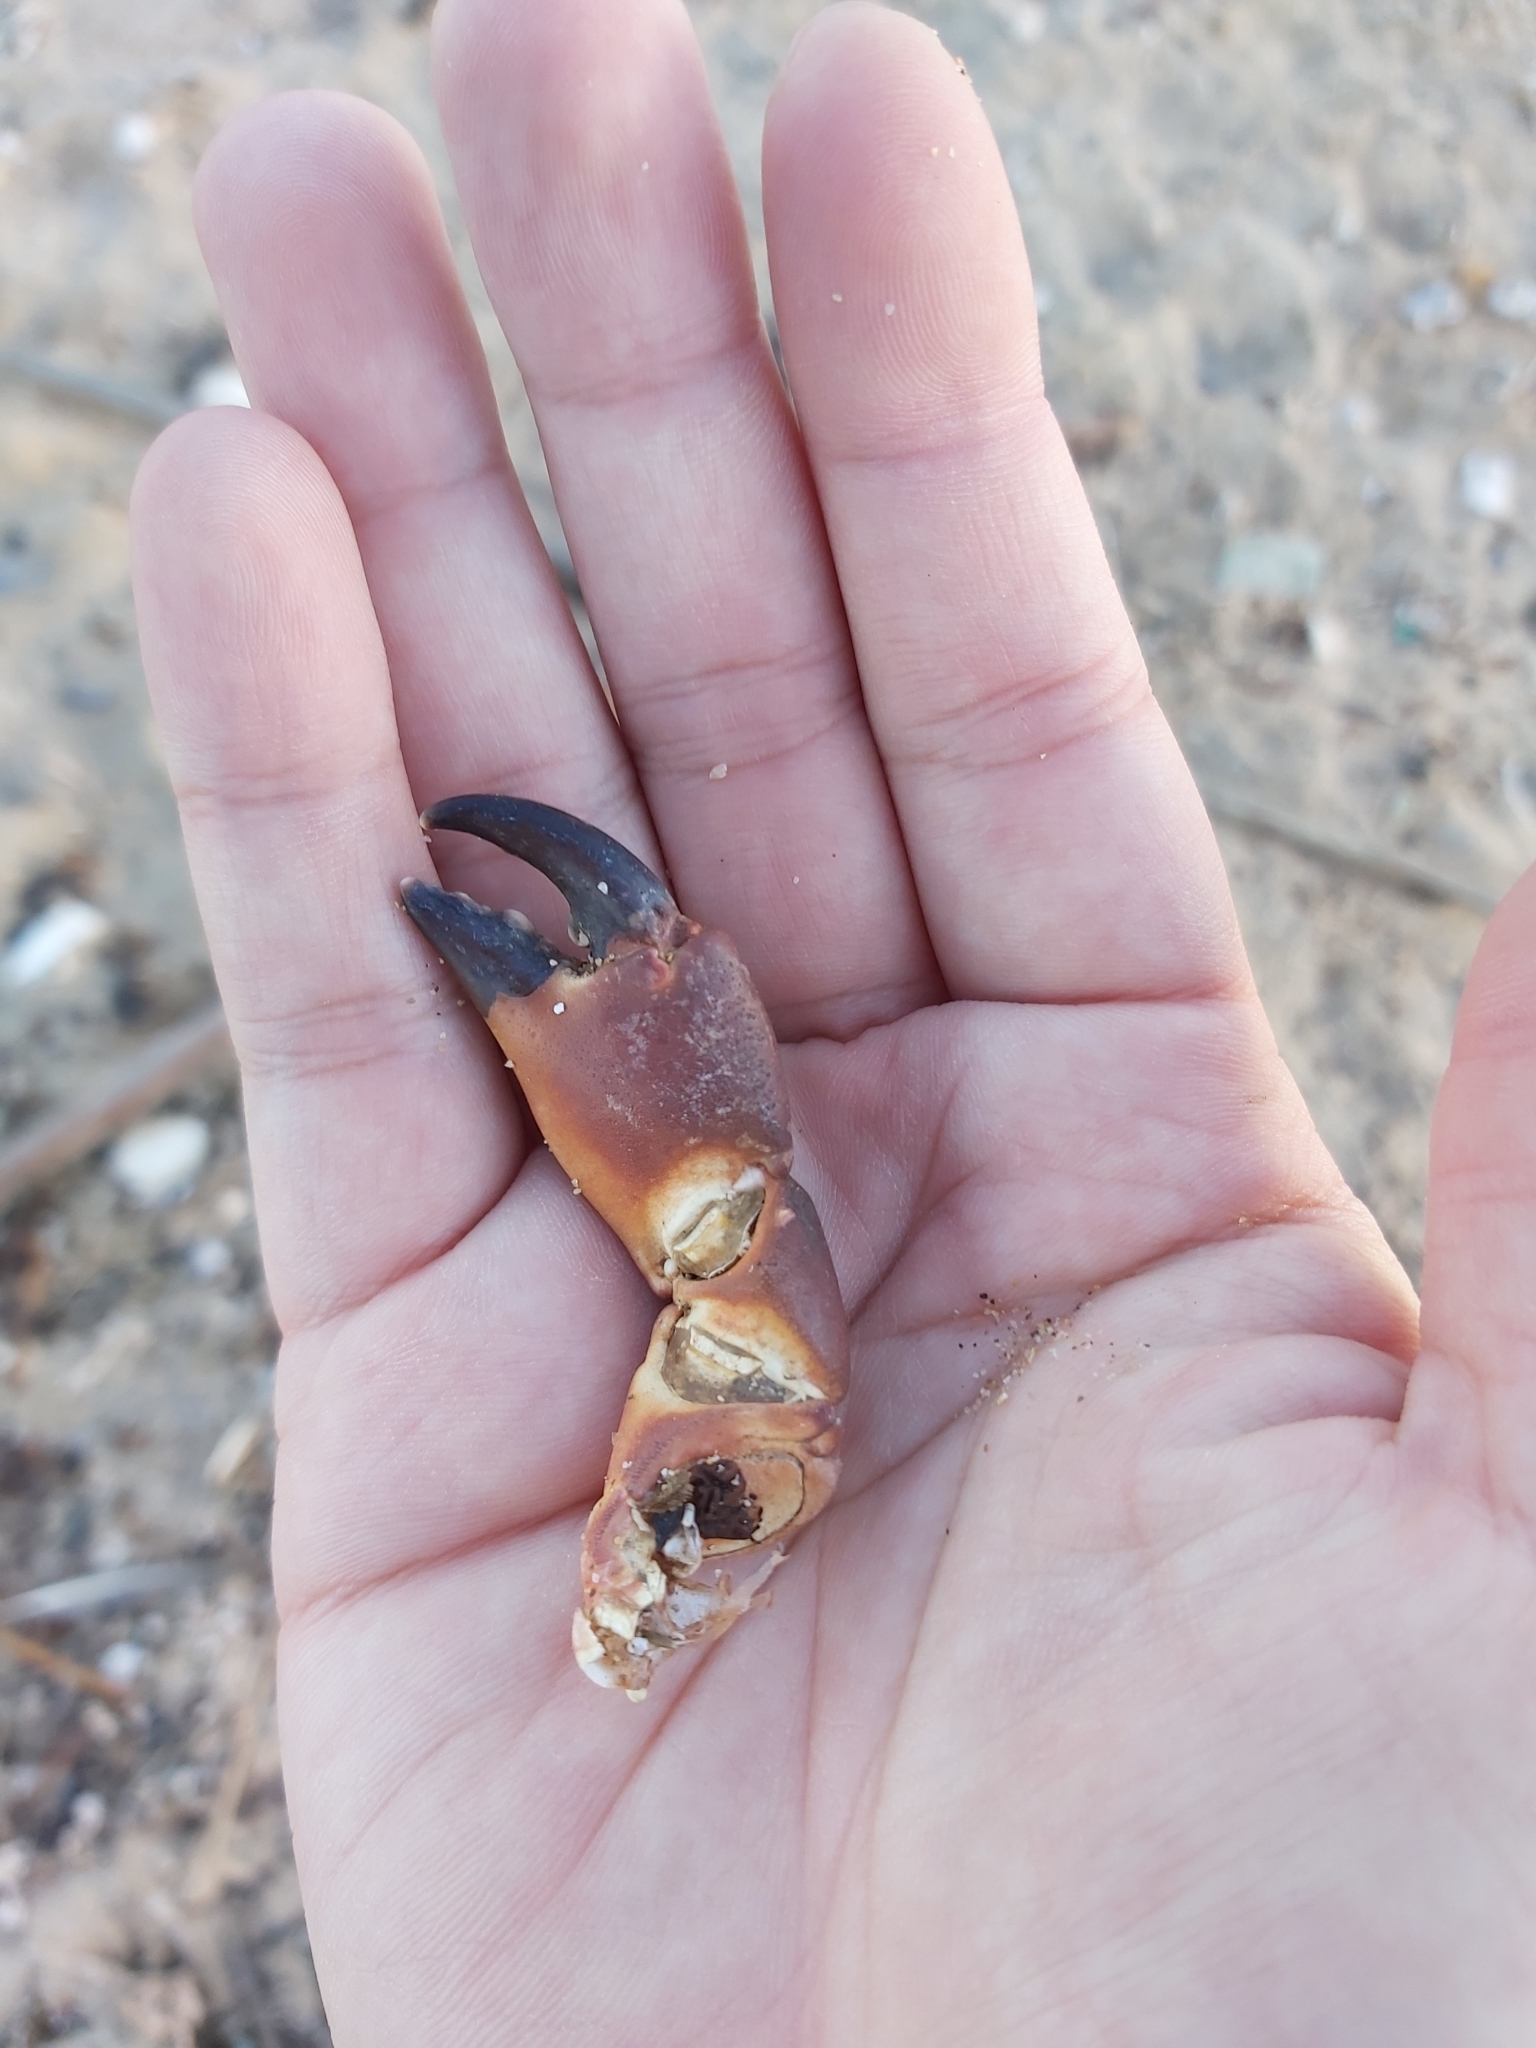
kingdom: Animalia
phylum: Arthropoda
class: Malacostraca
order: Decapoda
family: Oziidae
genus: Ozius
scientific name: Ozius truncatus
